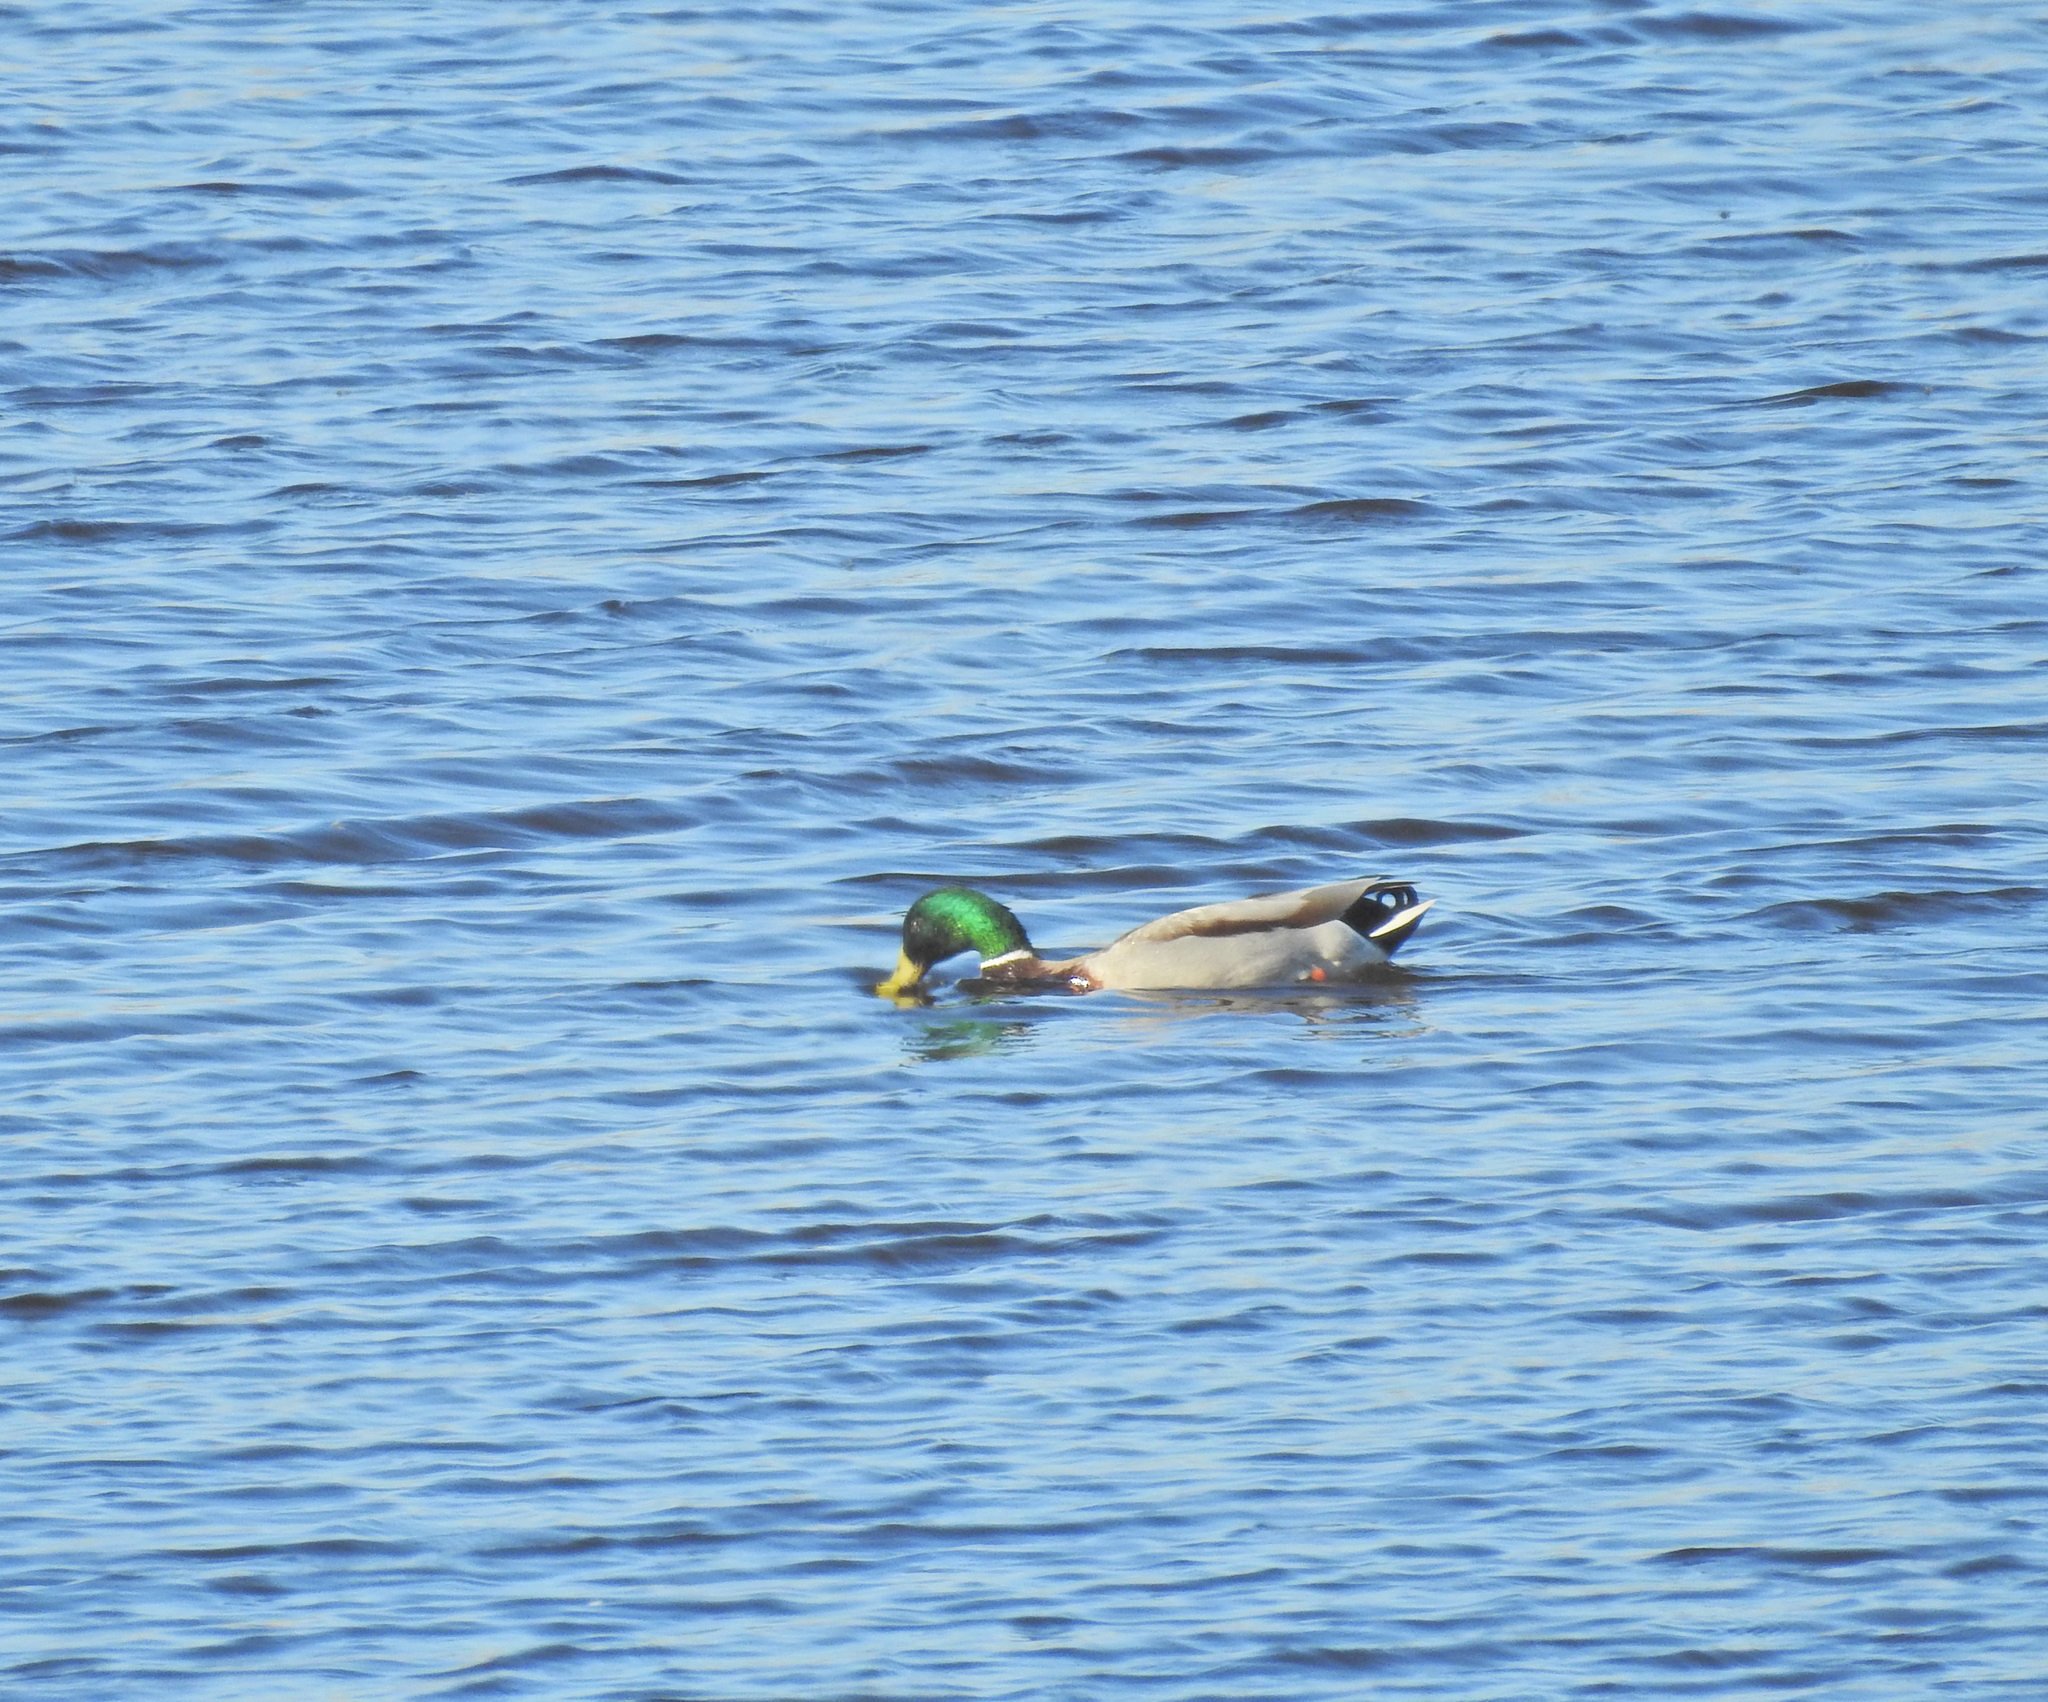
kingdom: Animalia
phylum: Chordata
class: Aves
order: Anseriformes
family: Anatidae
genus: Anas
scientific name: Anas platyrhynchos
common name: Mallard
